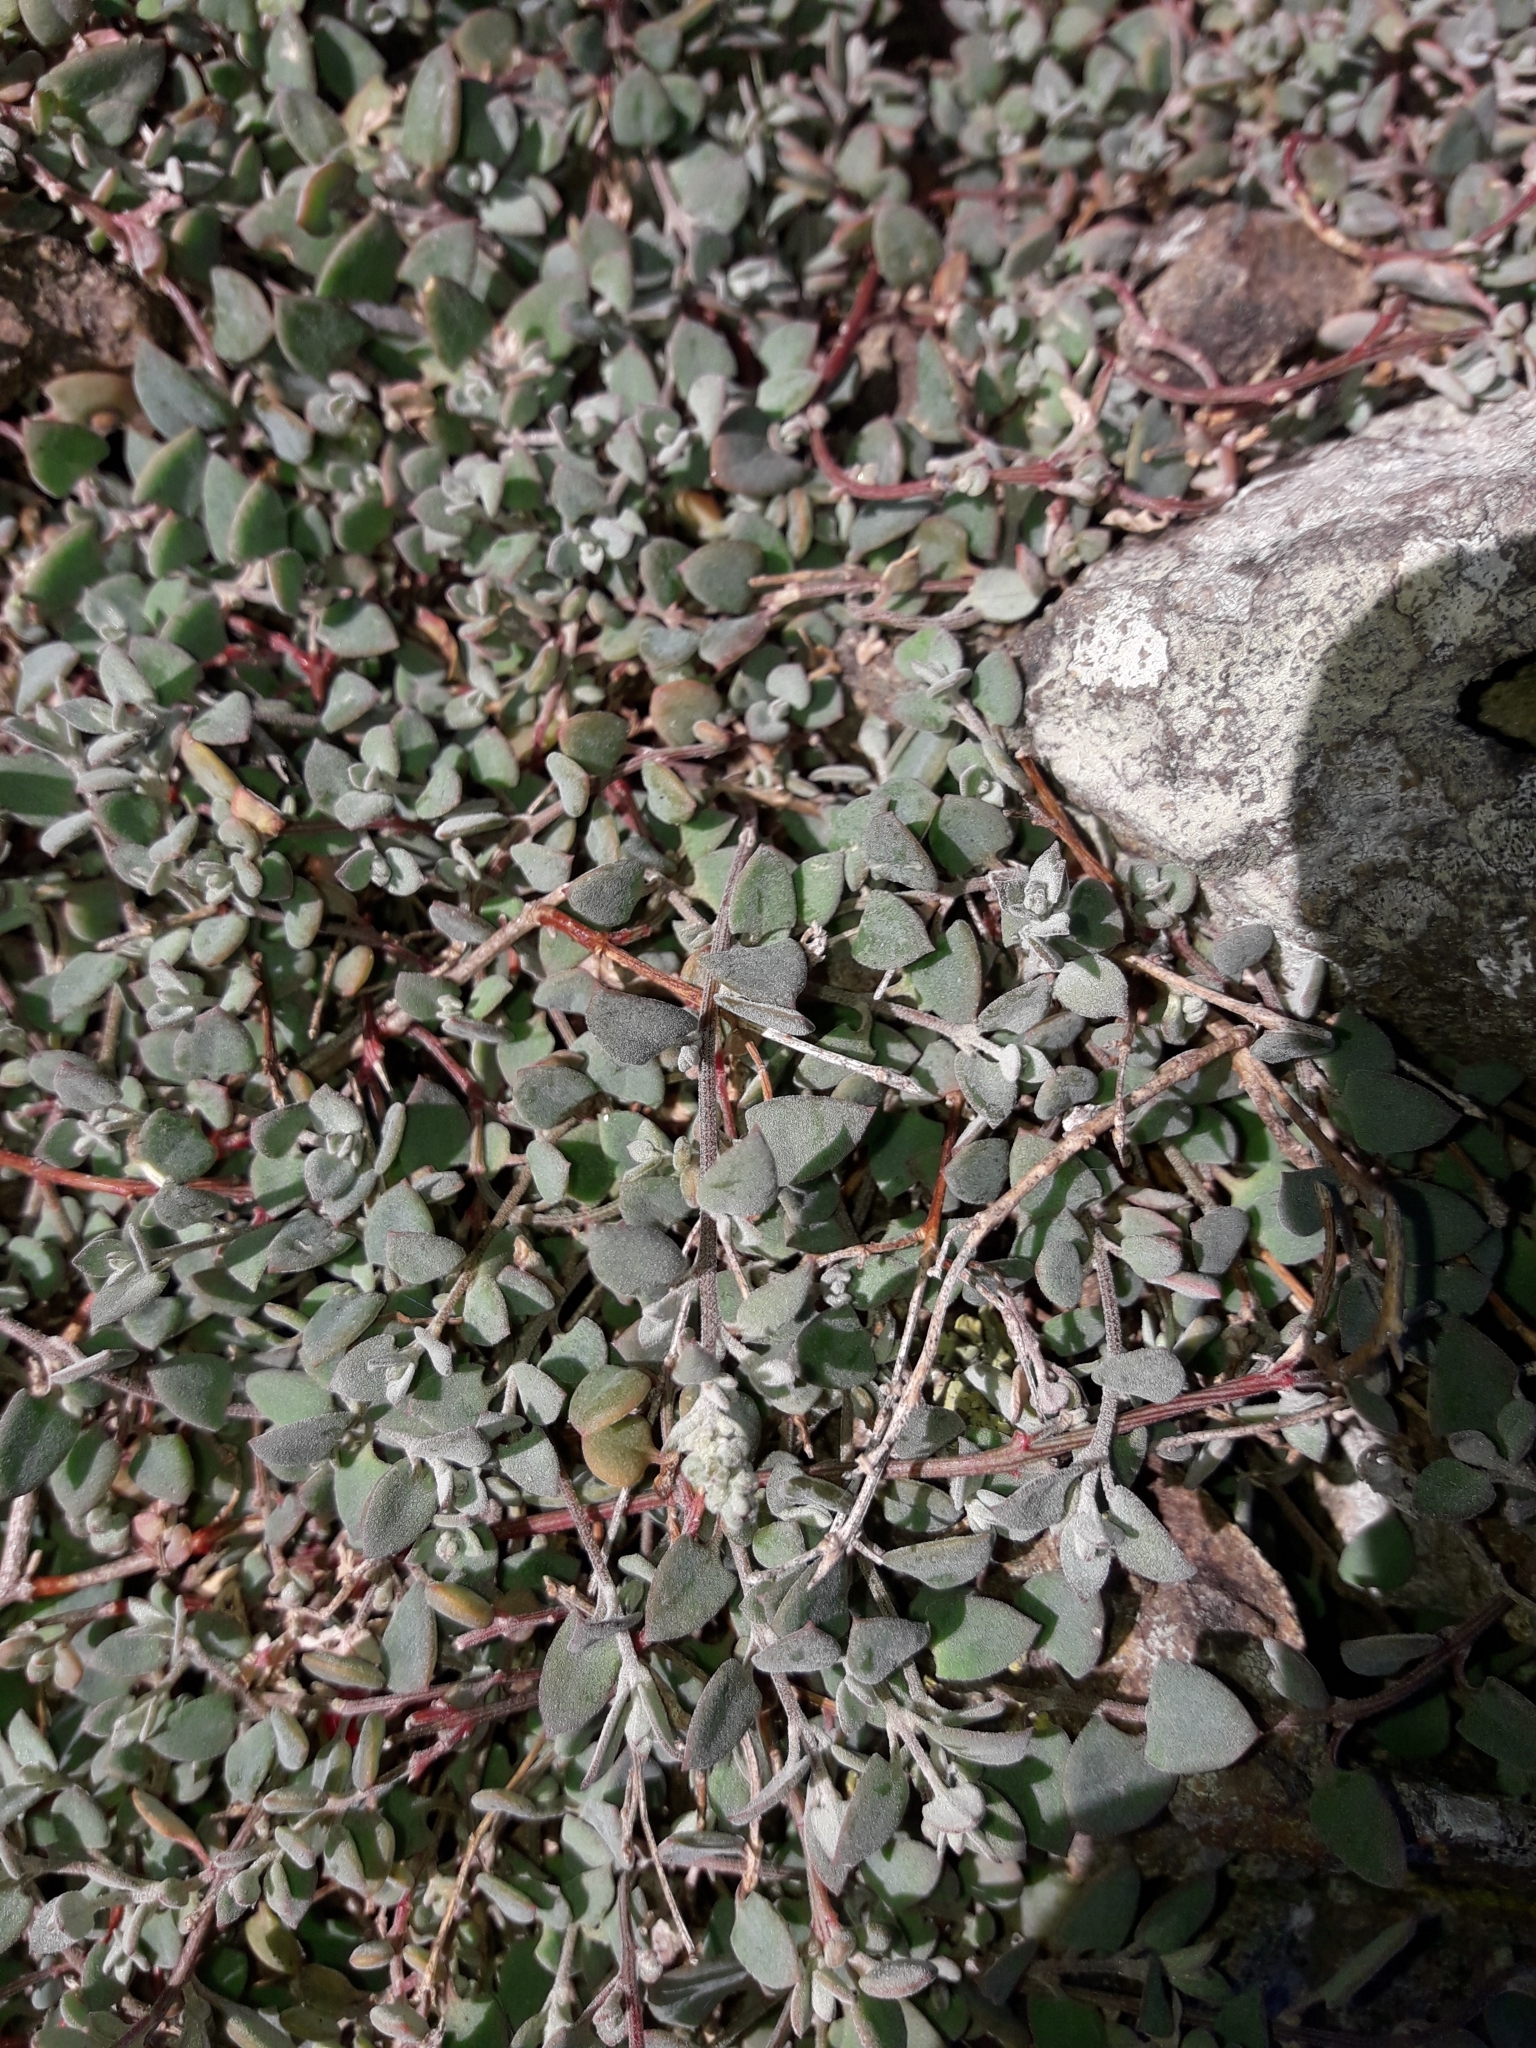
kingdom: Plantae
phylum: Tracheophyta
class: Magnoliopsida
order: Caryophyllales
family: Amaranthaceae
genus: Chenopodium
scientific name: Chenopodium triandrum
